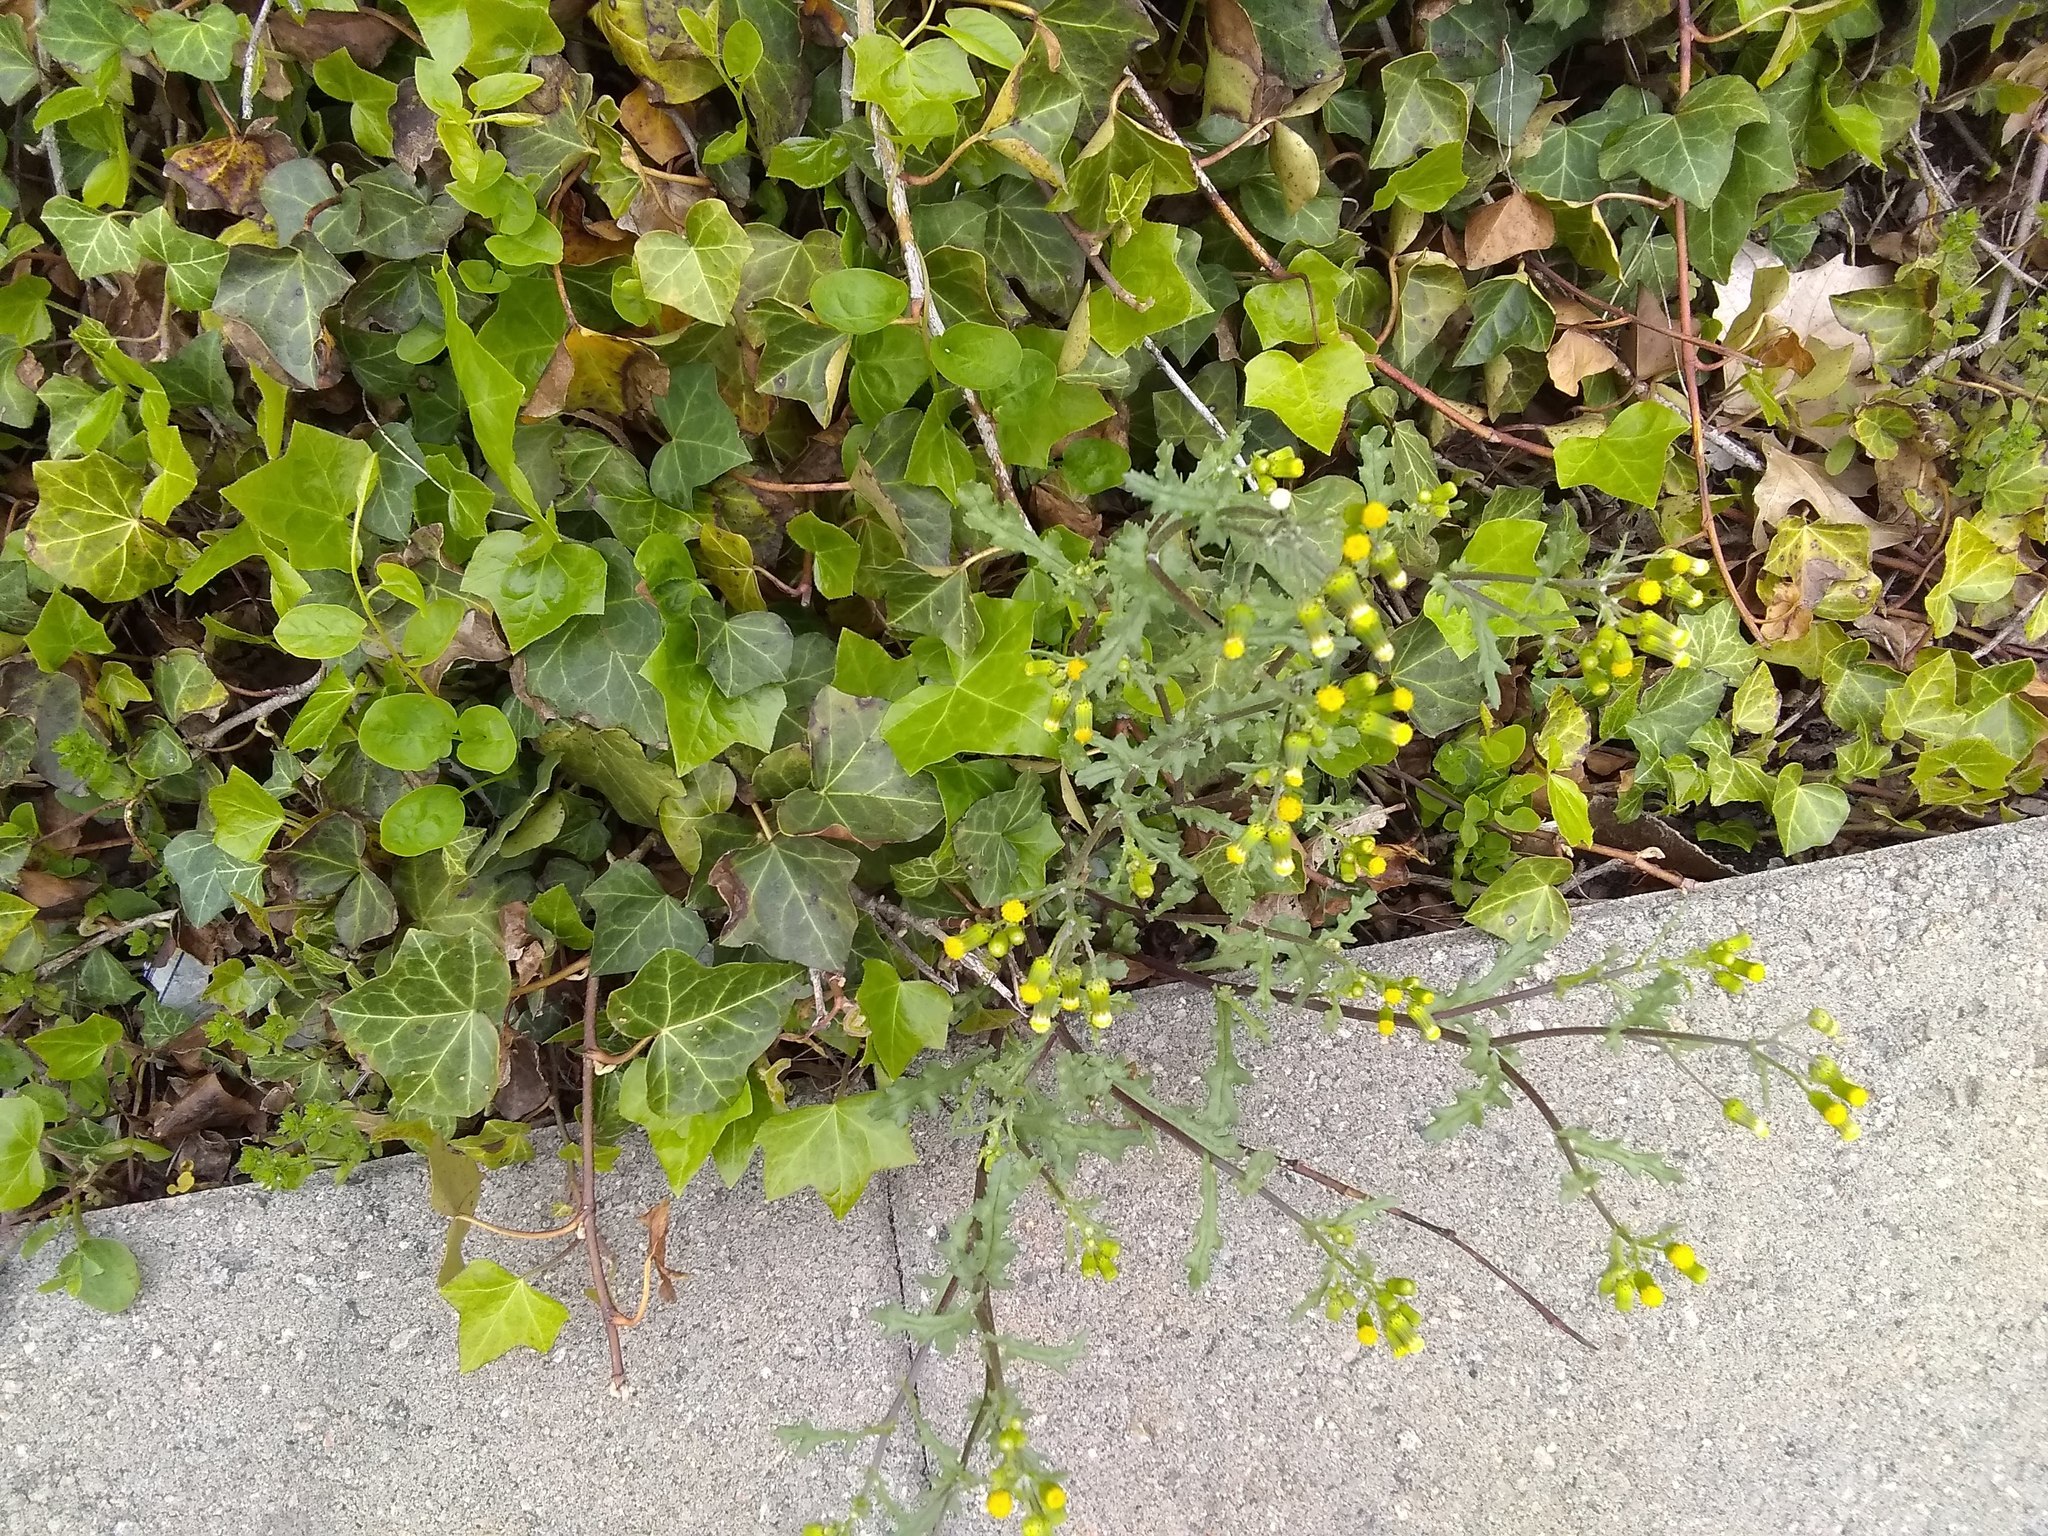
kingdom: Plantae
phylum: Tracheophyta
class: Magnoliopsida
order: Asterales
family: Asteraceae
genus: Senecio
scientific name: Senecio vulgaris
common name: Old-man-in-the-spring
